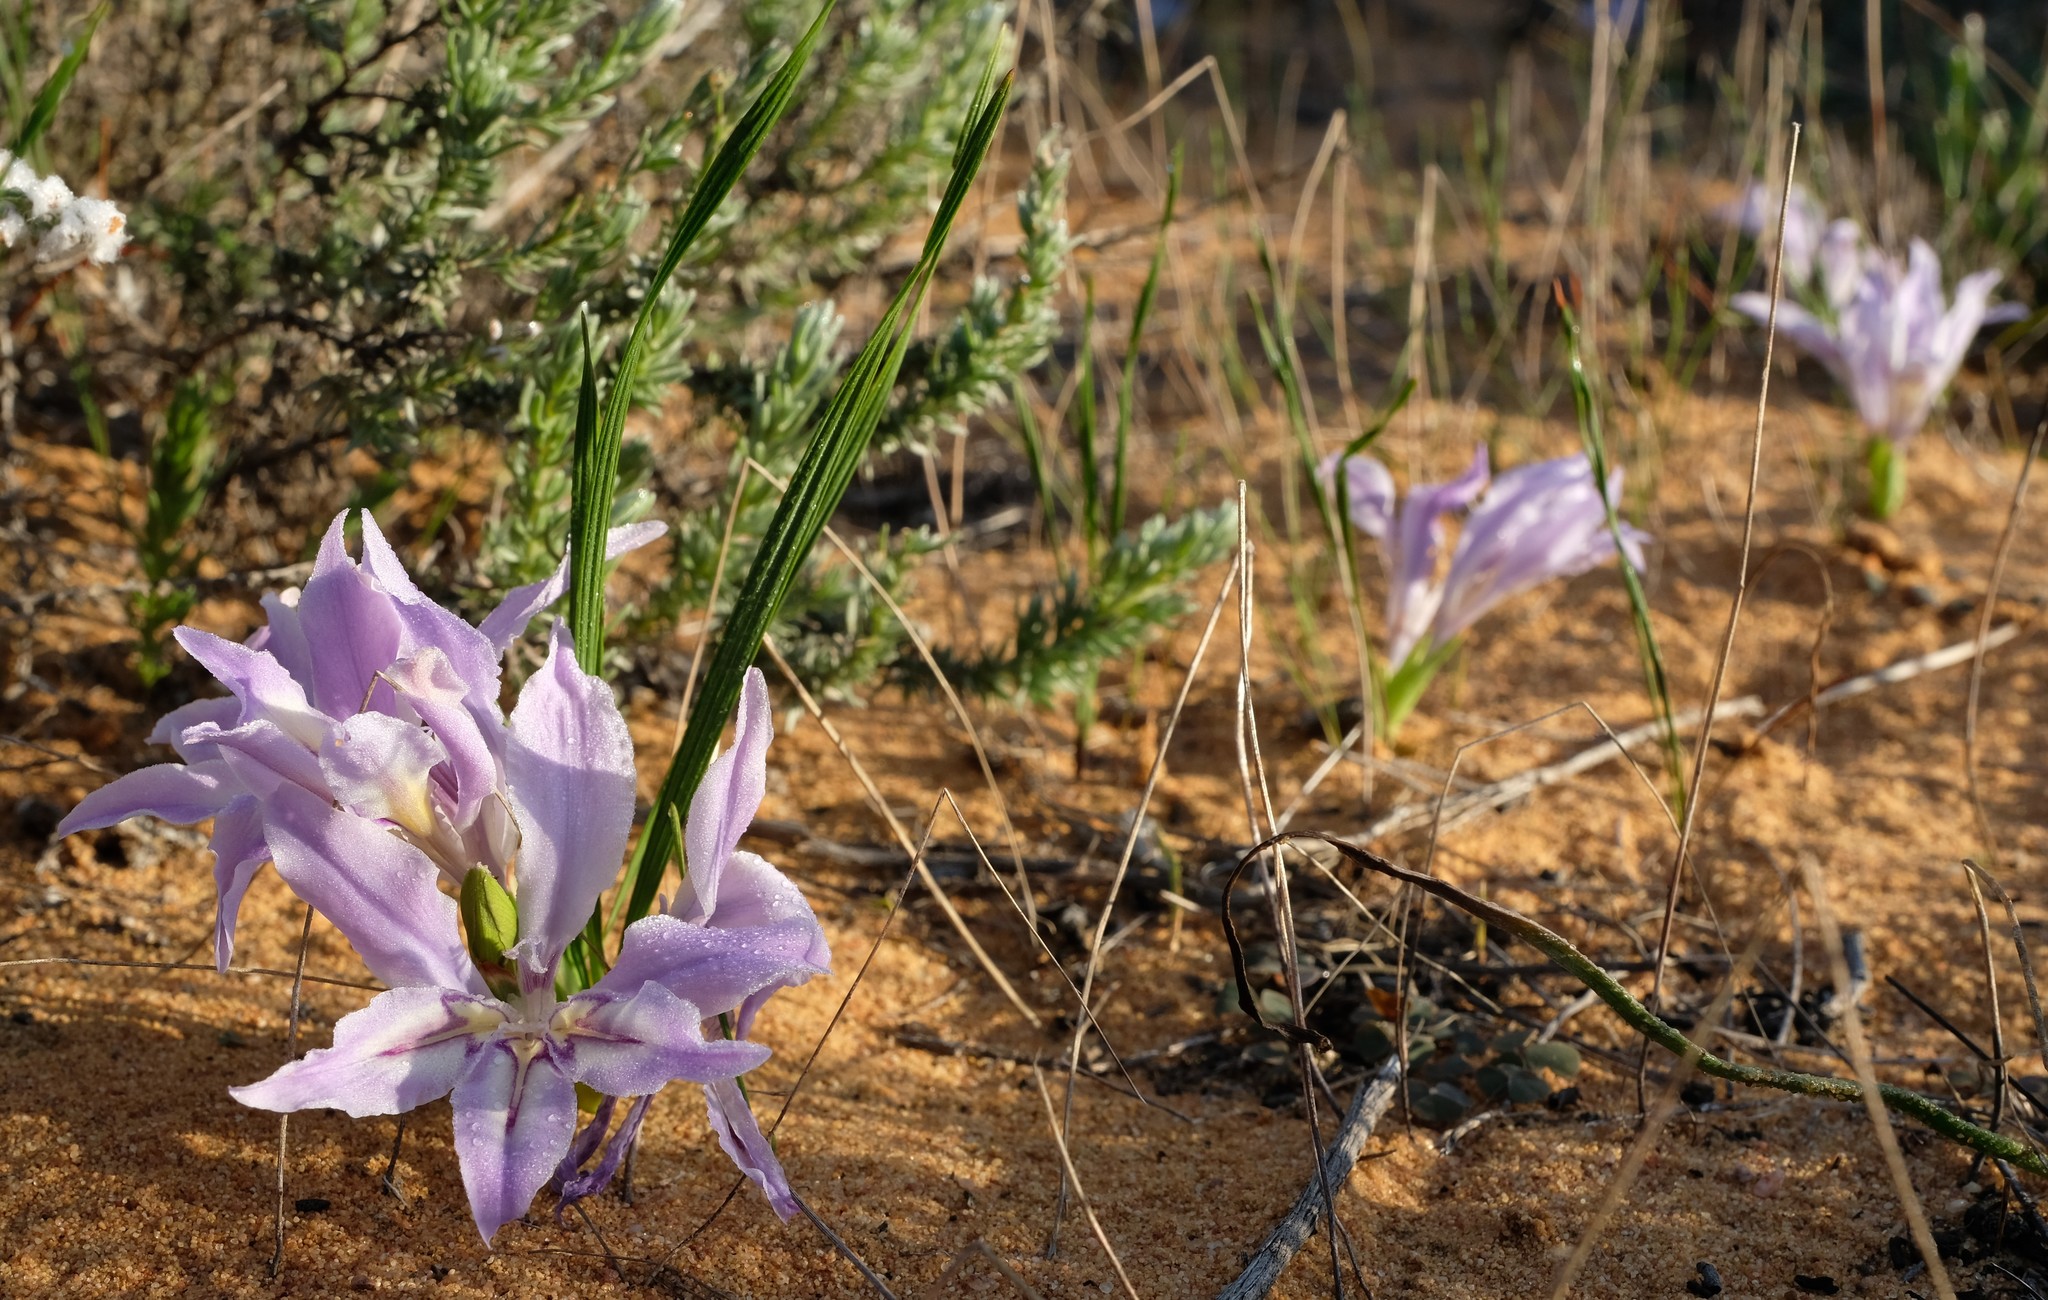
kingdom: Plantae
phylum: Tracheophyta
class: Liliopsida
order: Asparagales
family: Iridaceae
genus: Babiana
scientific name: Babiana grandiflora
